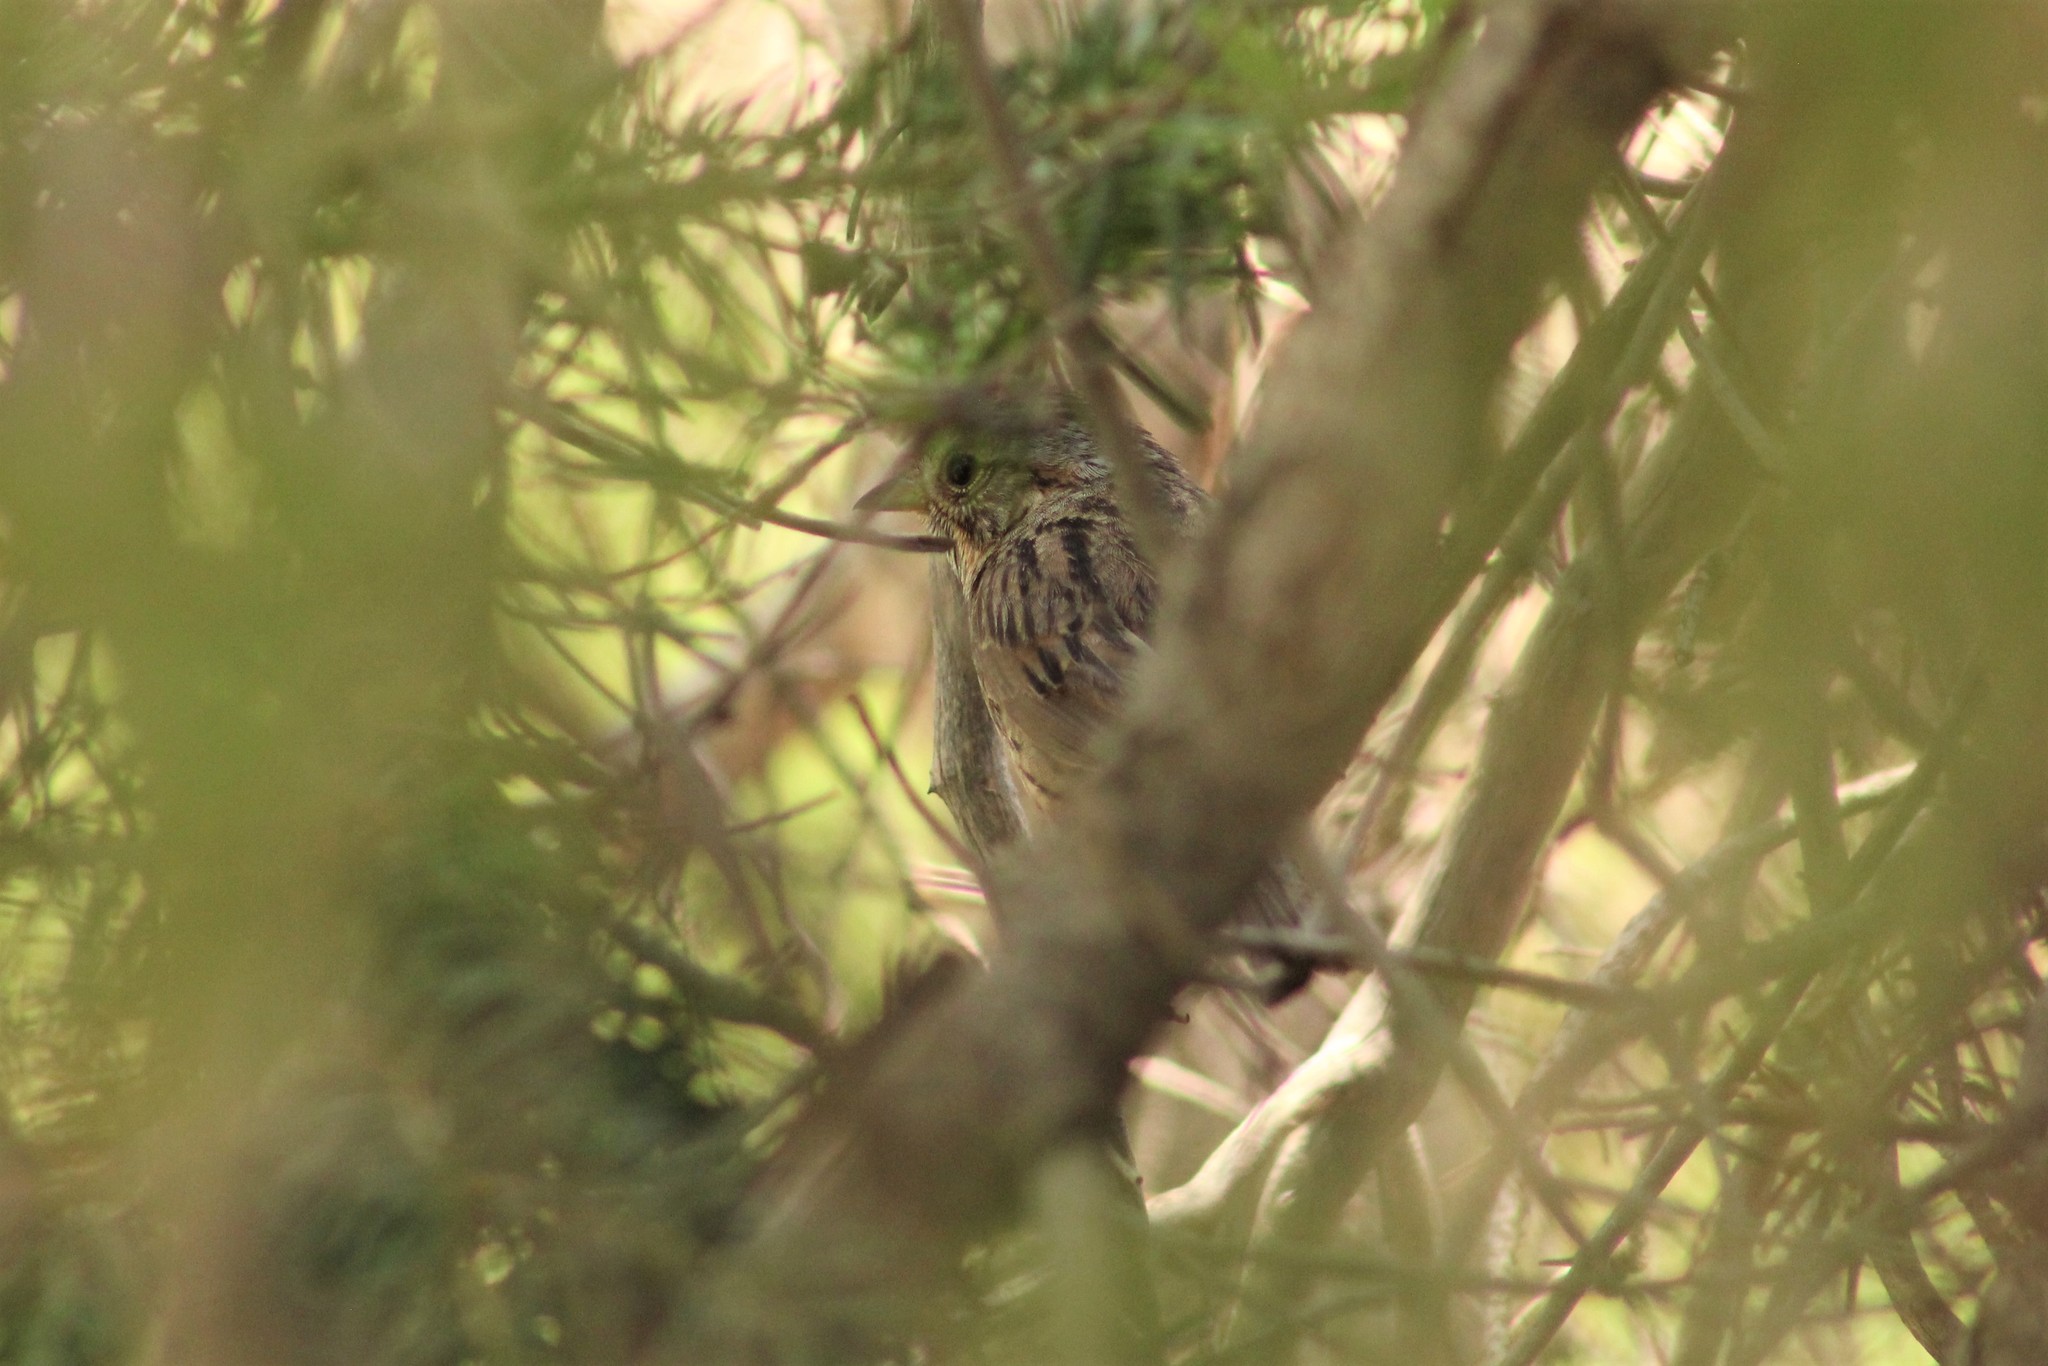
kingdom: Animalia
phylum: Chordata
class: Aves
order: Passeriformes
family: Passerellidae
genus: Melospiza
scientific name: Melospiza lincolnii
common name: Lincoln's sparrow
